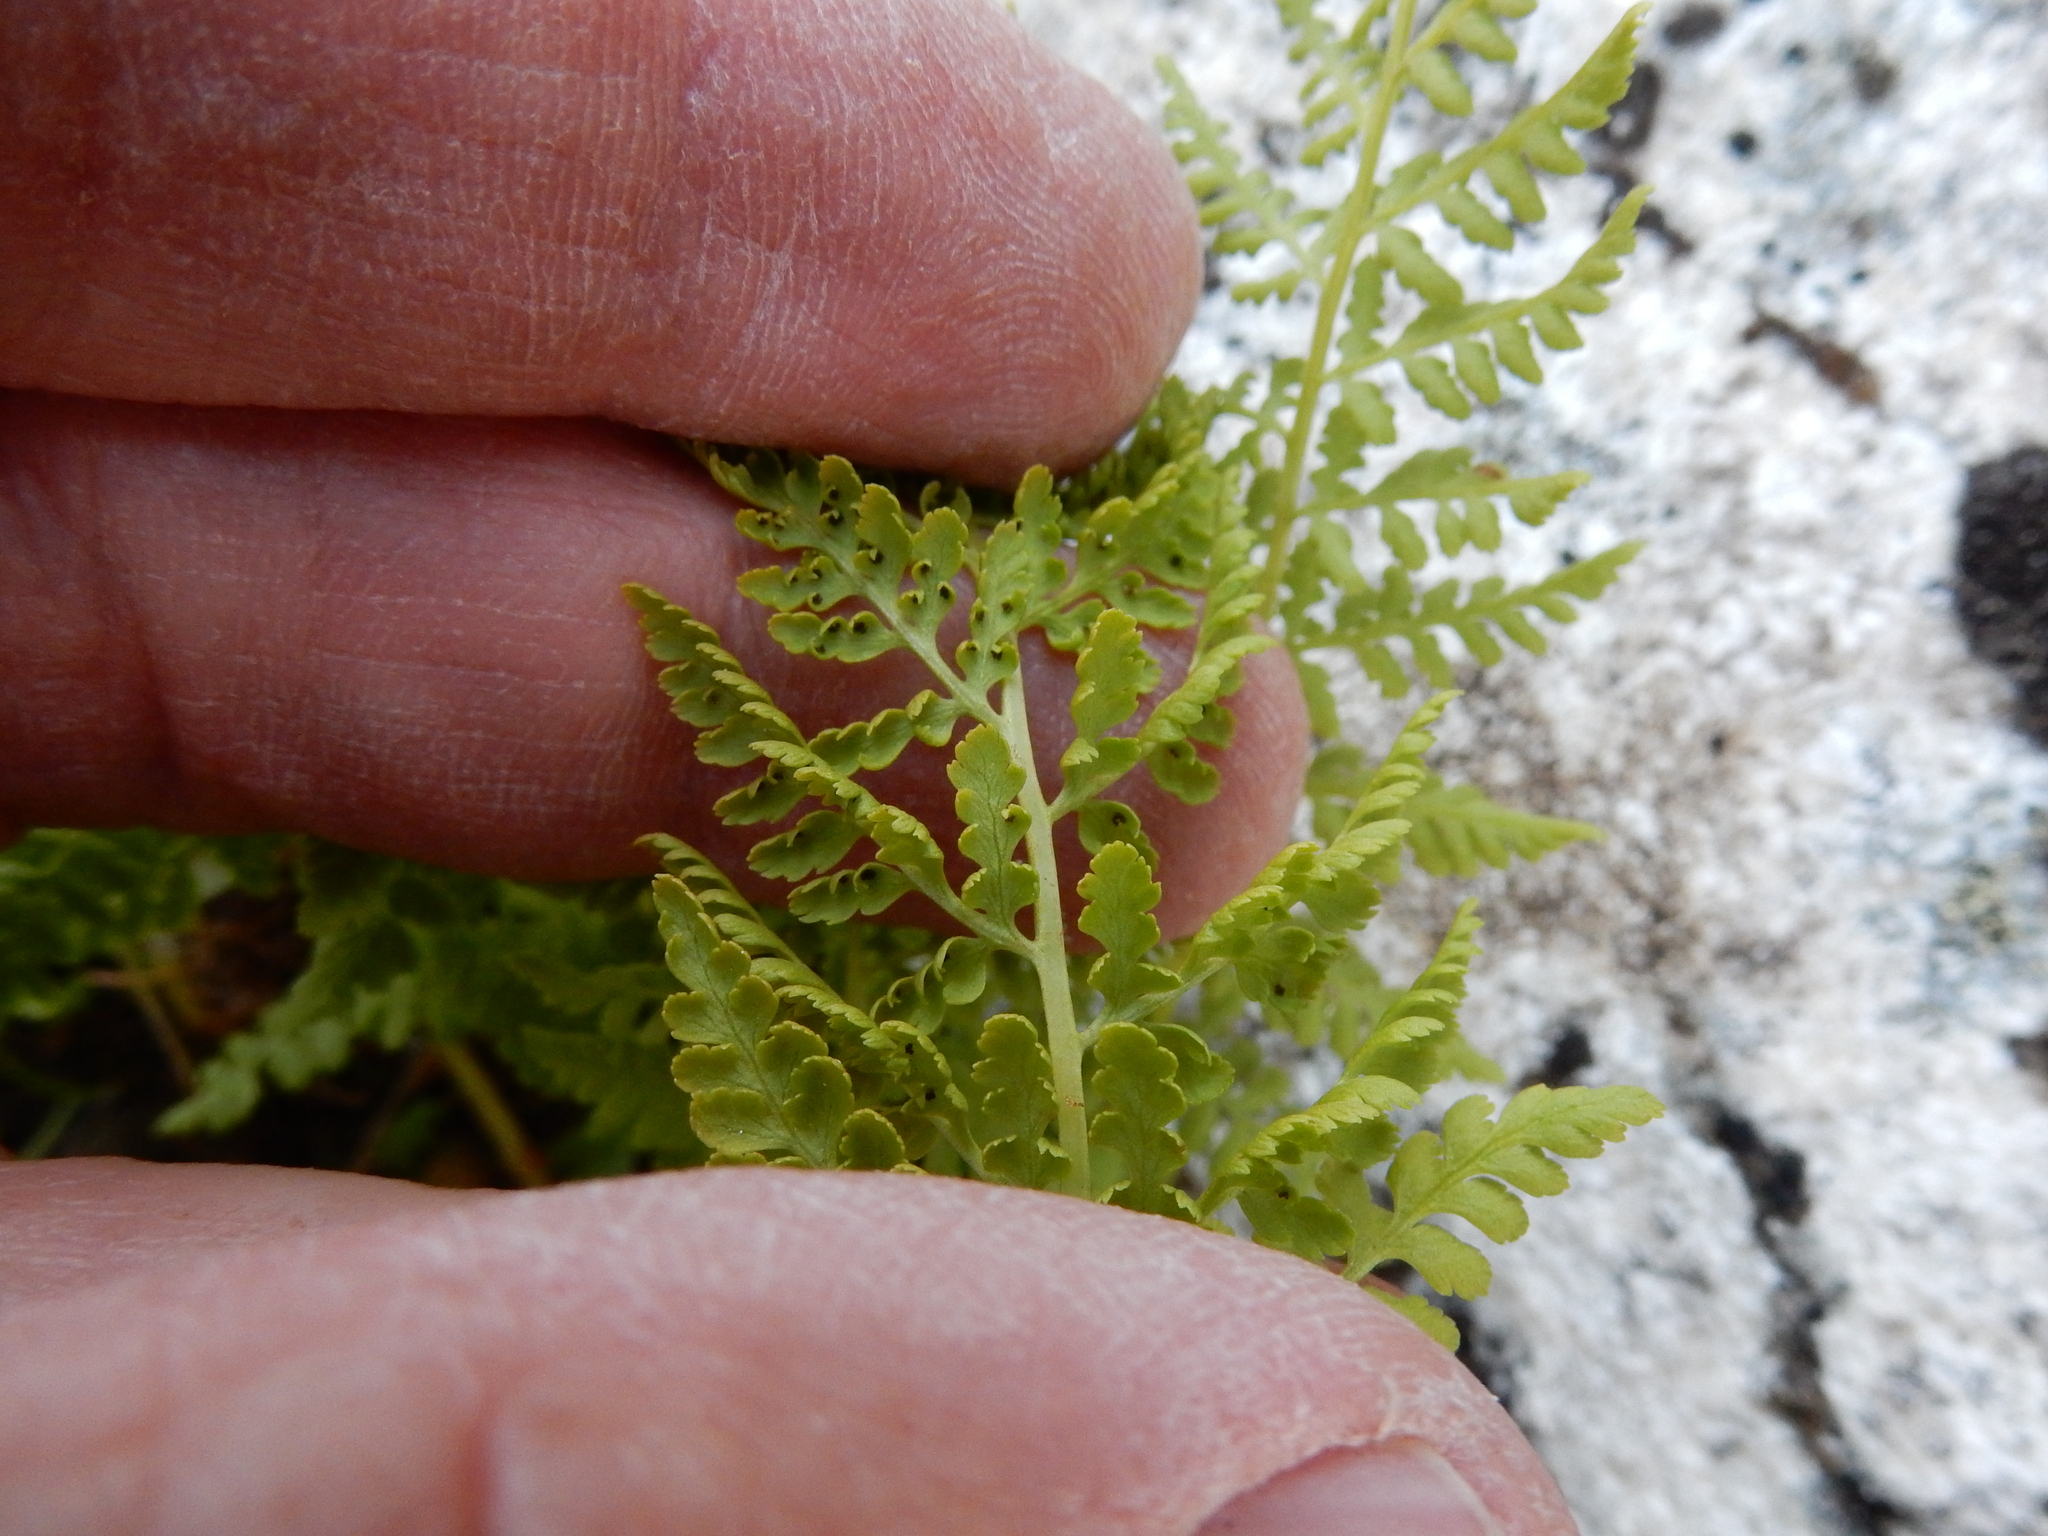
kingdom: Plantae
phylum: Tracheophyta
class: Polypodiopsida
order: Polypodiales
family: Athyriaceae
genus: Athyrium
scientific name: Athyrium americanum
